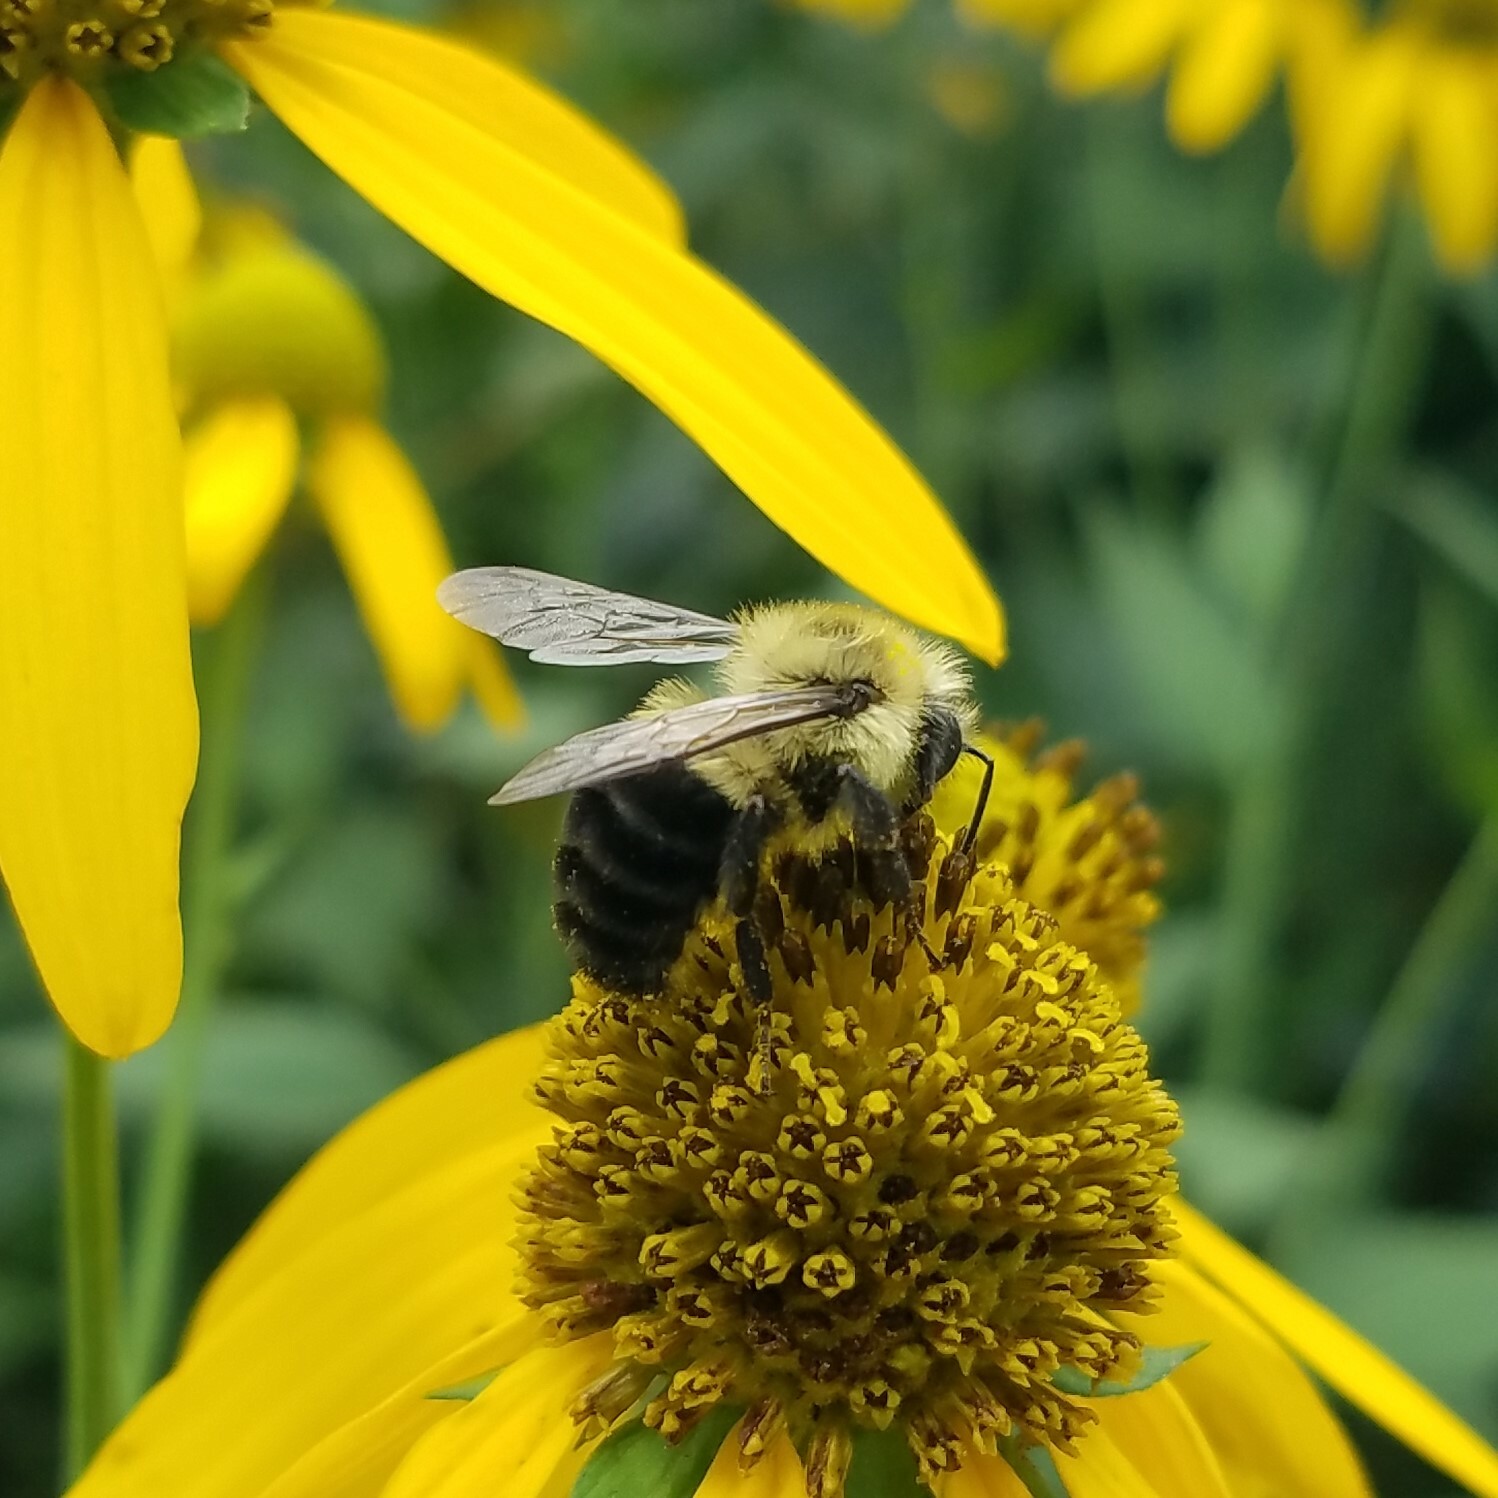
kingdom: Animalia
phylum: Arthropoda
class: Insecta
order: Hymenoptera
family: Apidae
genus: Bombus
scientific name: Bombus impatiens
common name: Common eastern bumble bee
